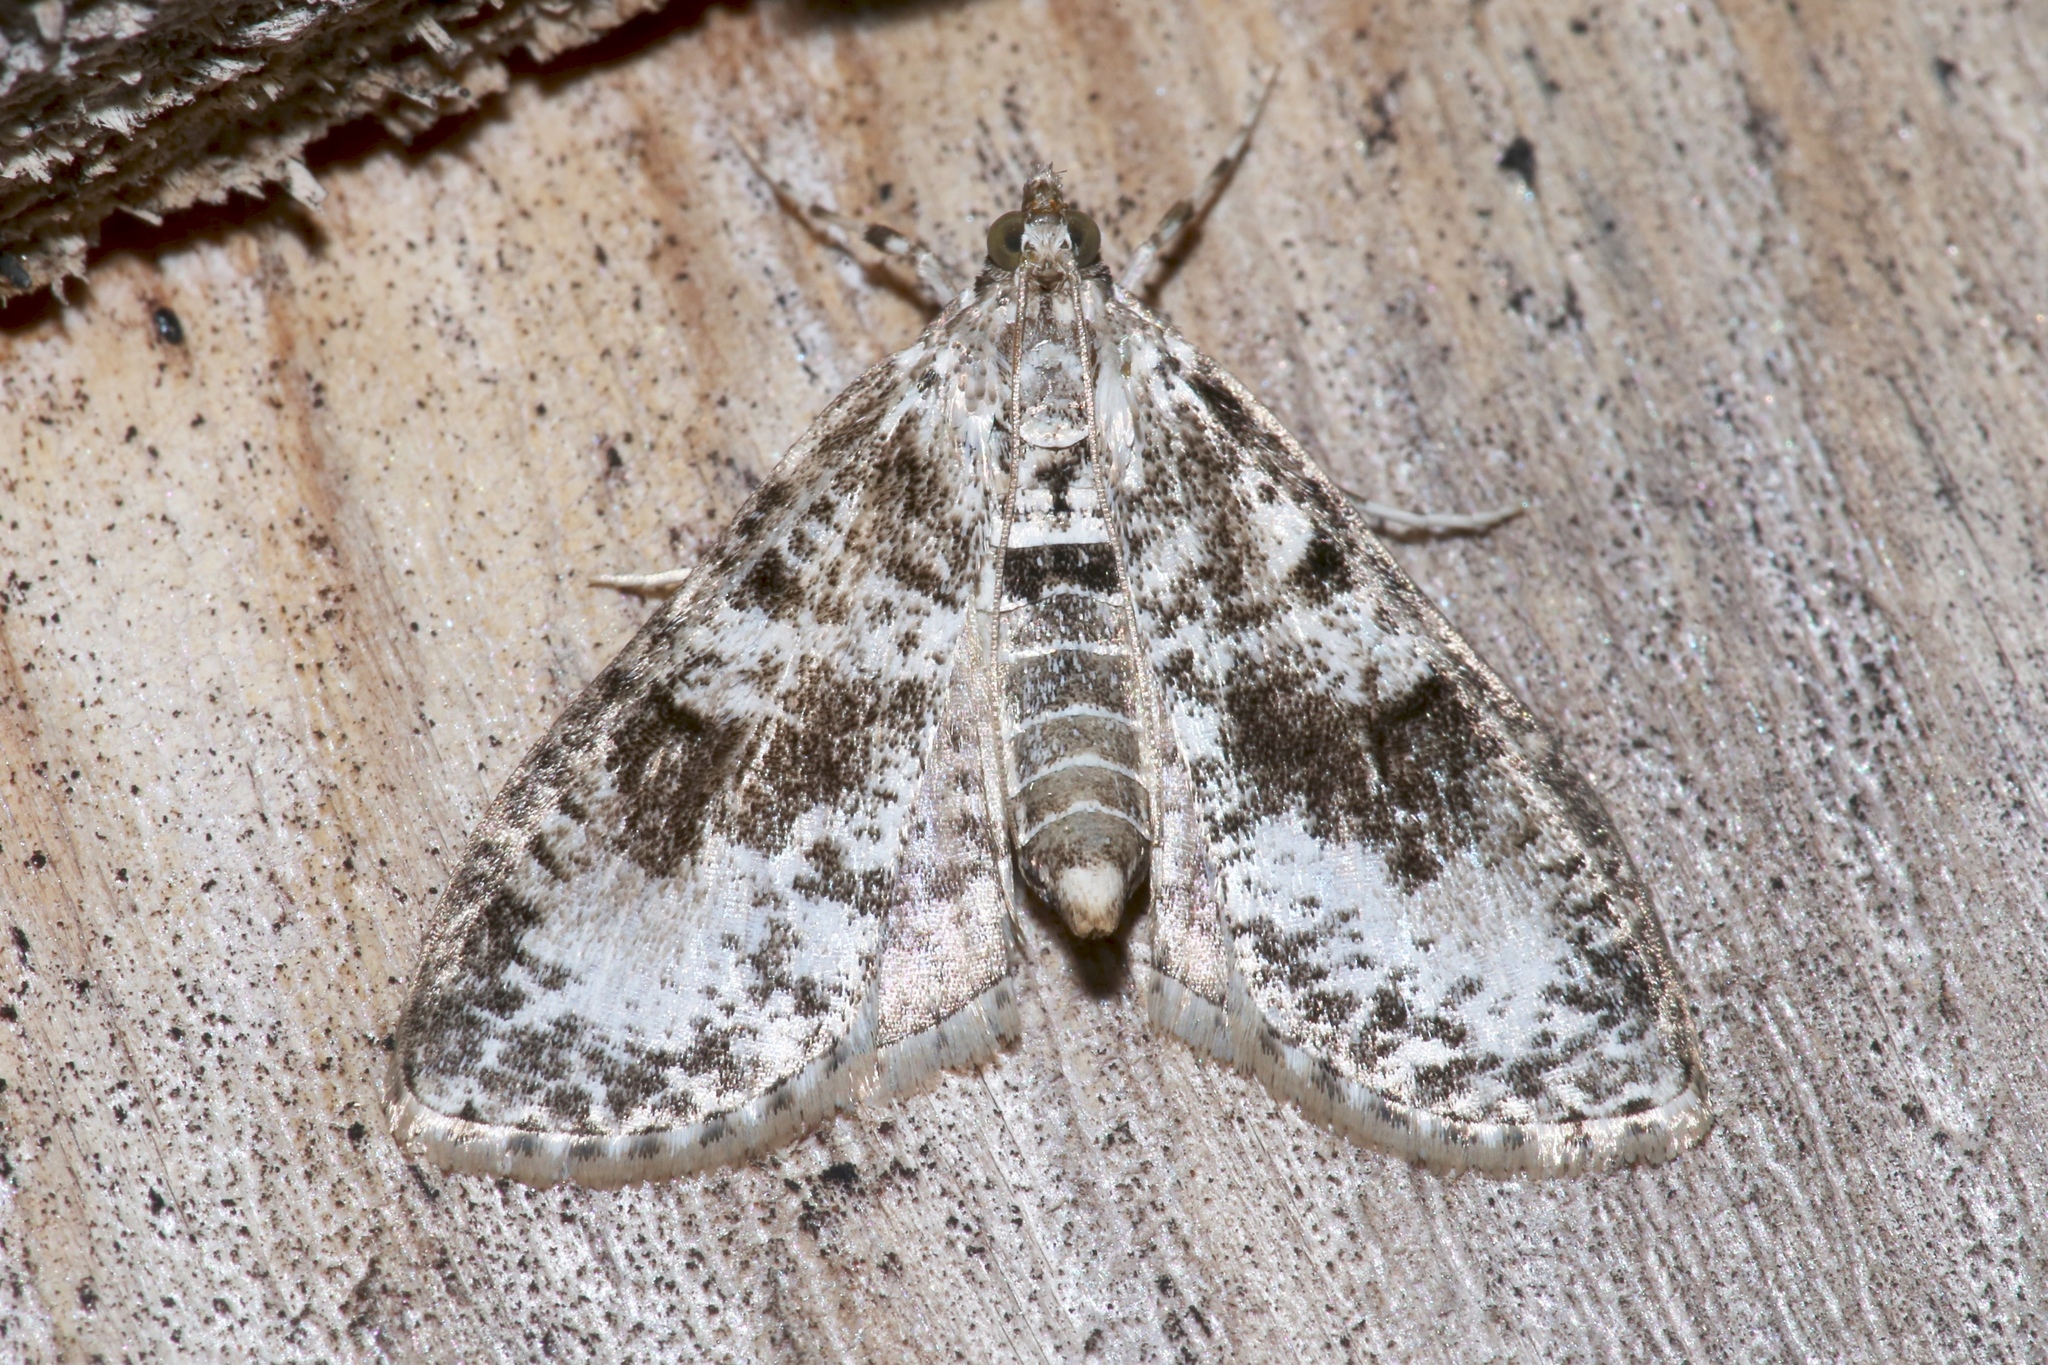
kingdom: Animalia
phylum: Arthropoda
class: Insecta
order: Lepidoptera
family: Crambidae
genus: Palpita
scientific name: Palpita magniferalis
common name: Splendid palpita moth
